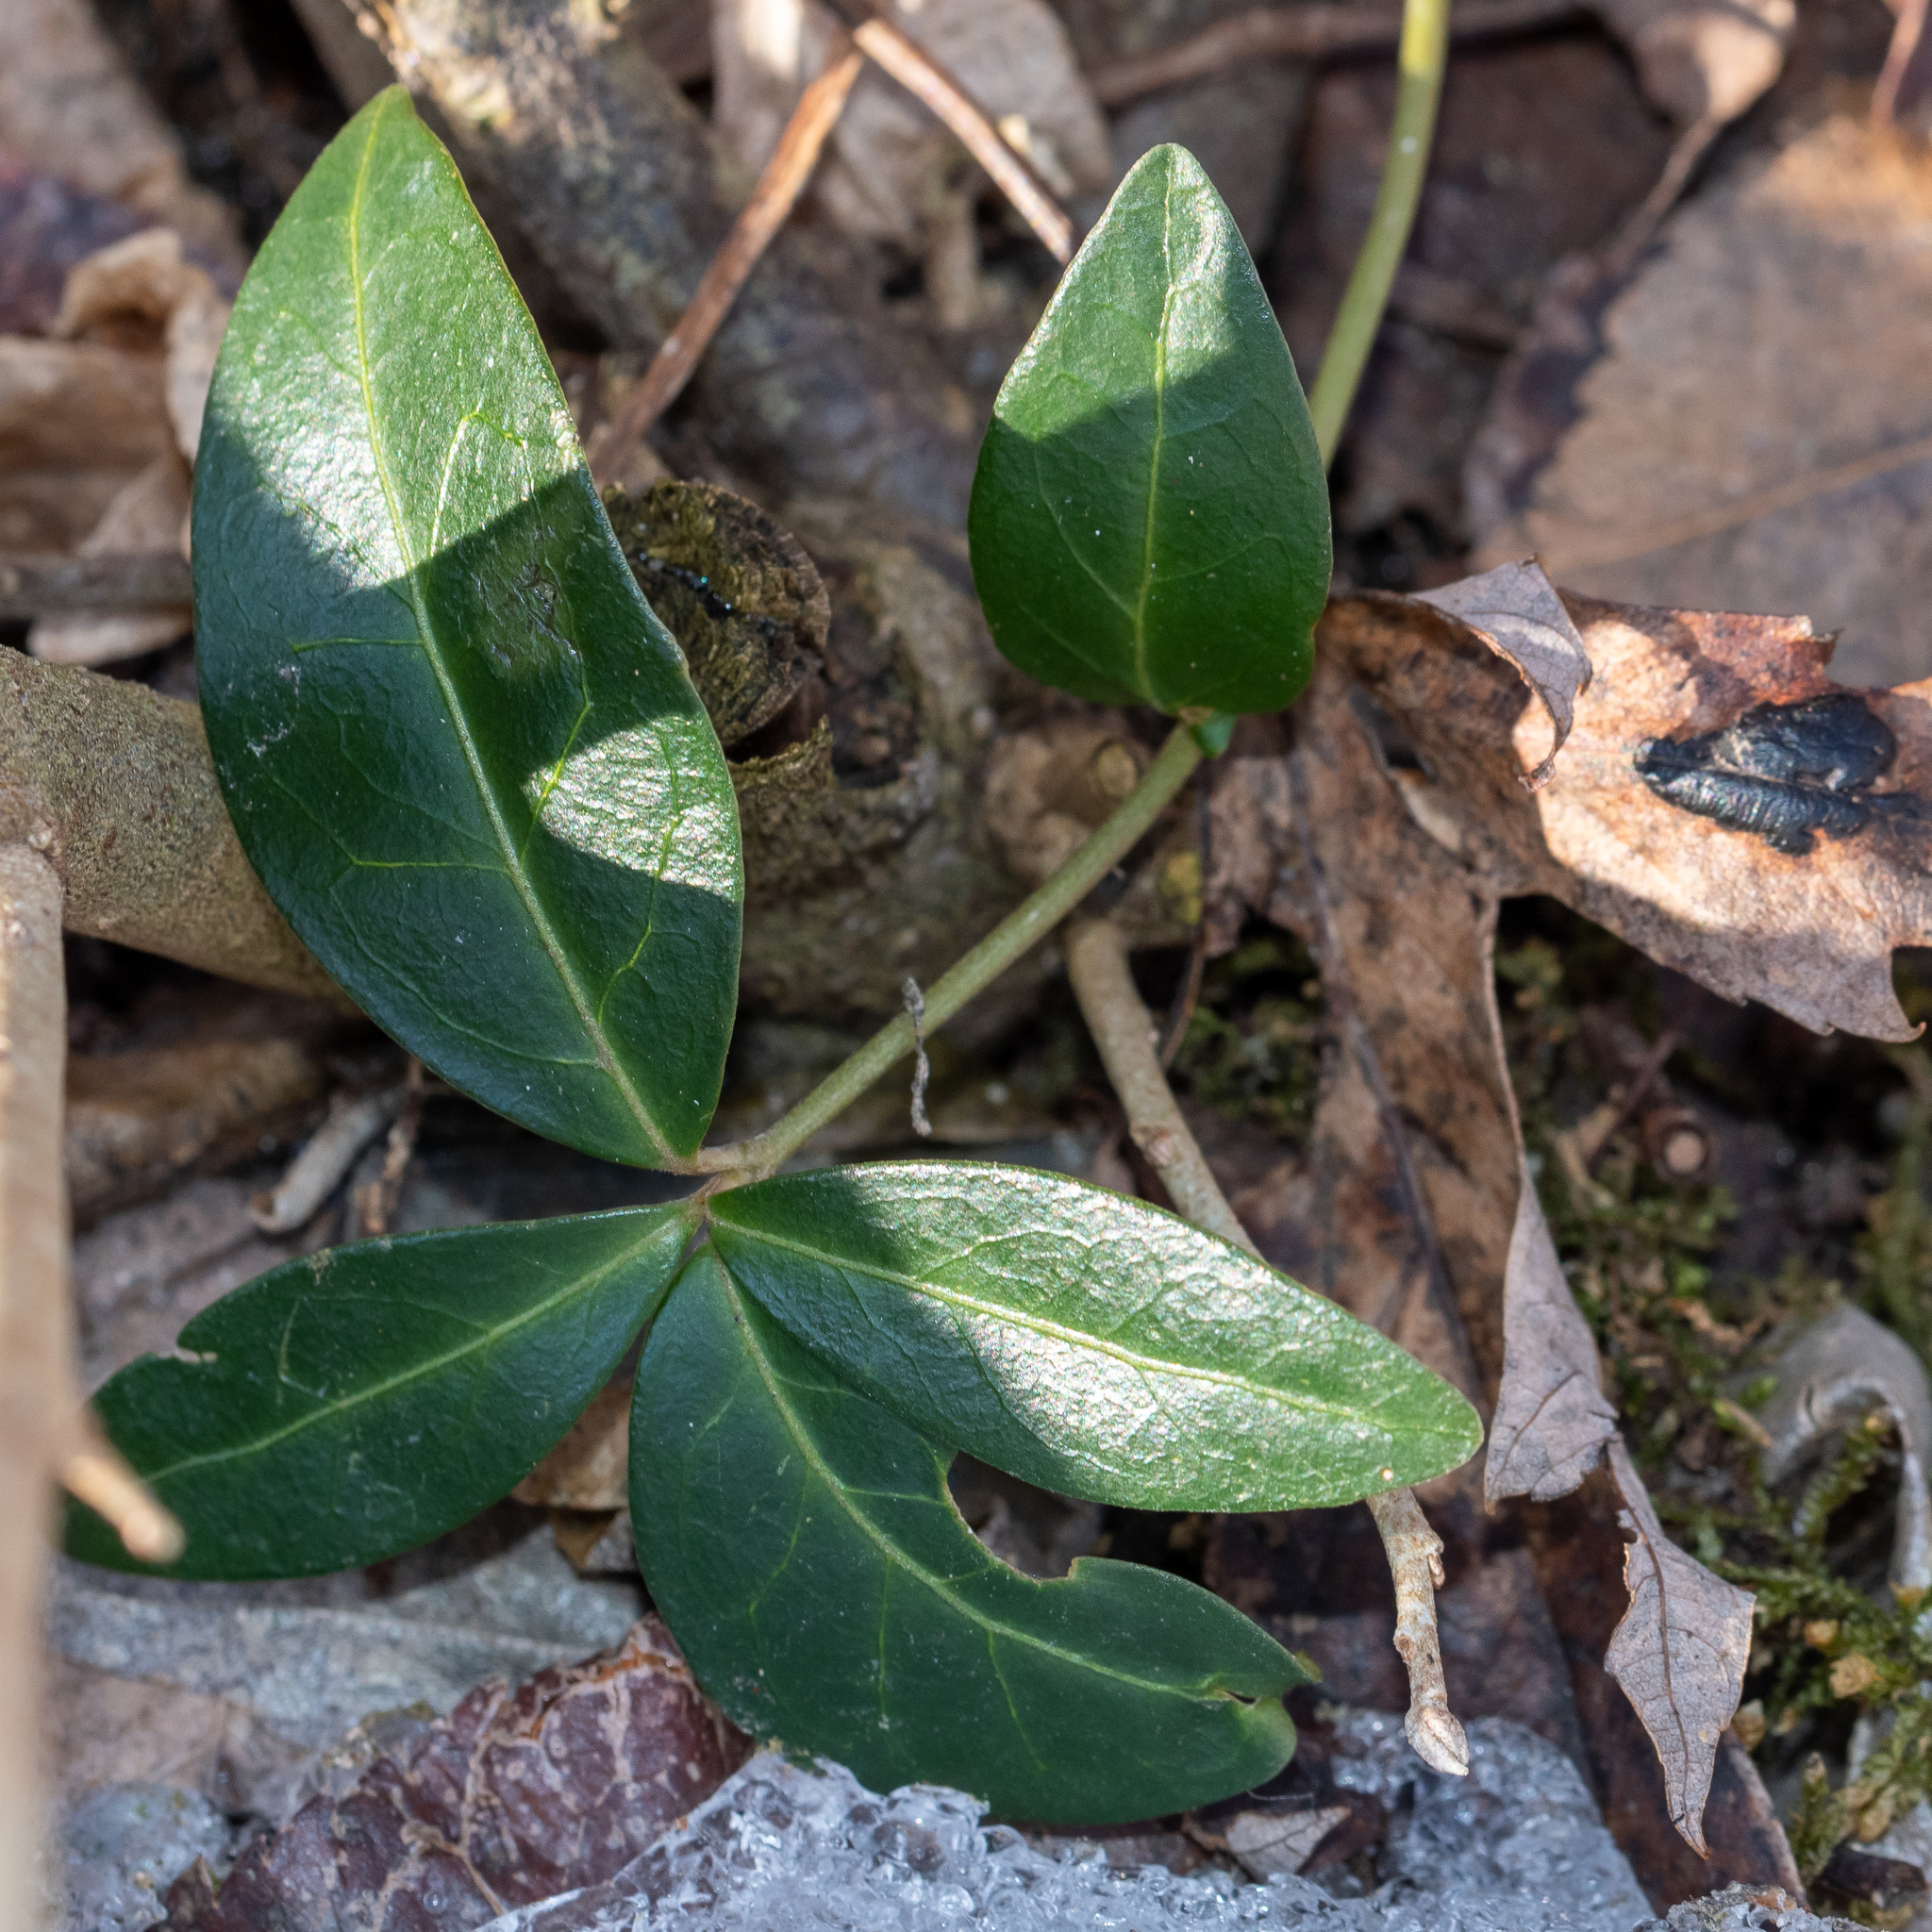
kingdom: Plantae
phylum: Tracheophyta
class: Magnoliopsida
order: Gentianales
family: Apocynaceae
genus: Vinca
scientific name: Vinca minor
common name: Lesser periwinkle
